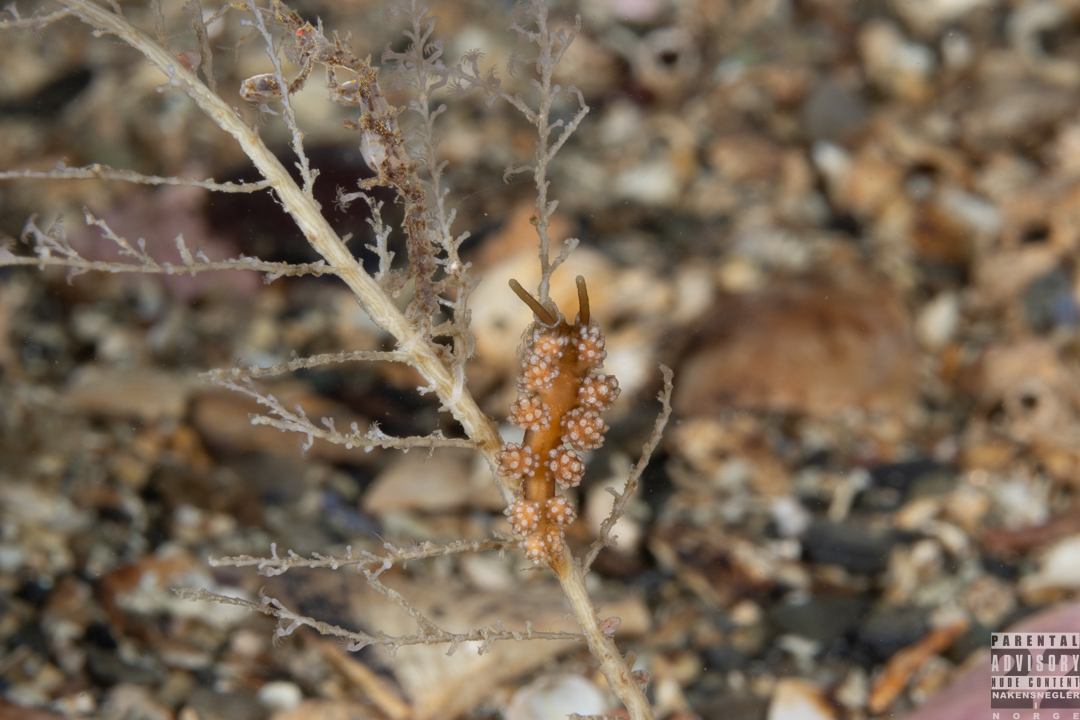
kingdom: Animalia
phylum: Mollusca
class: Gastropoda
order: Nudibranchia
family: Dotidae
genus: Doto
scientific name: Doto fragilis
